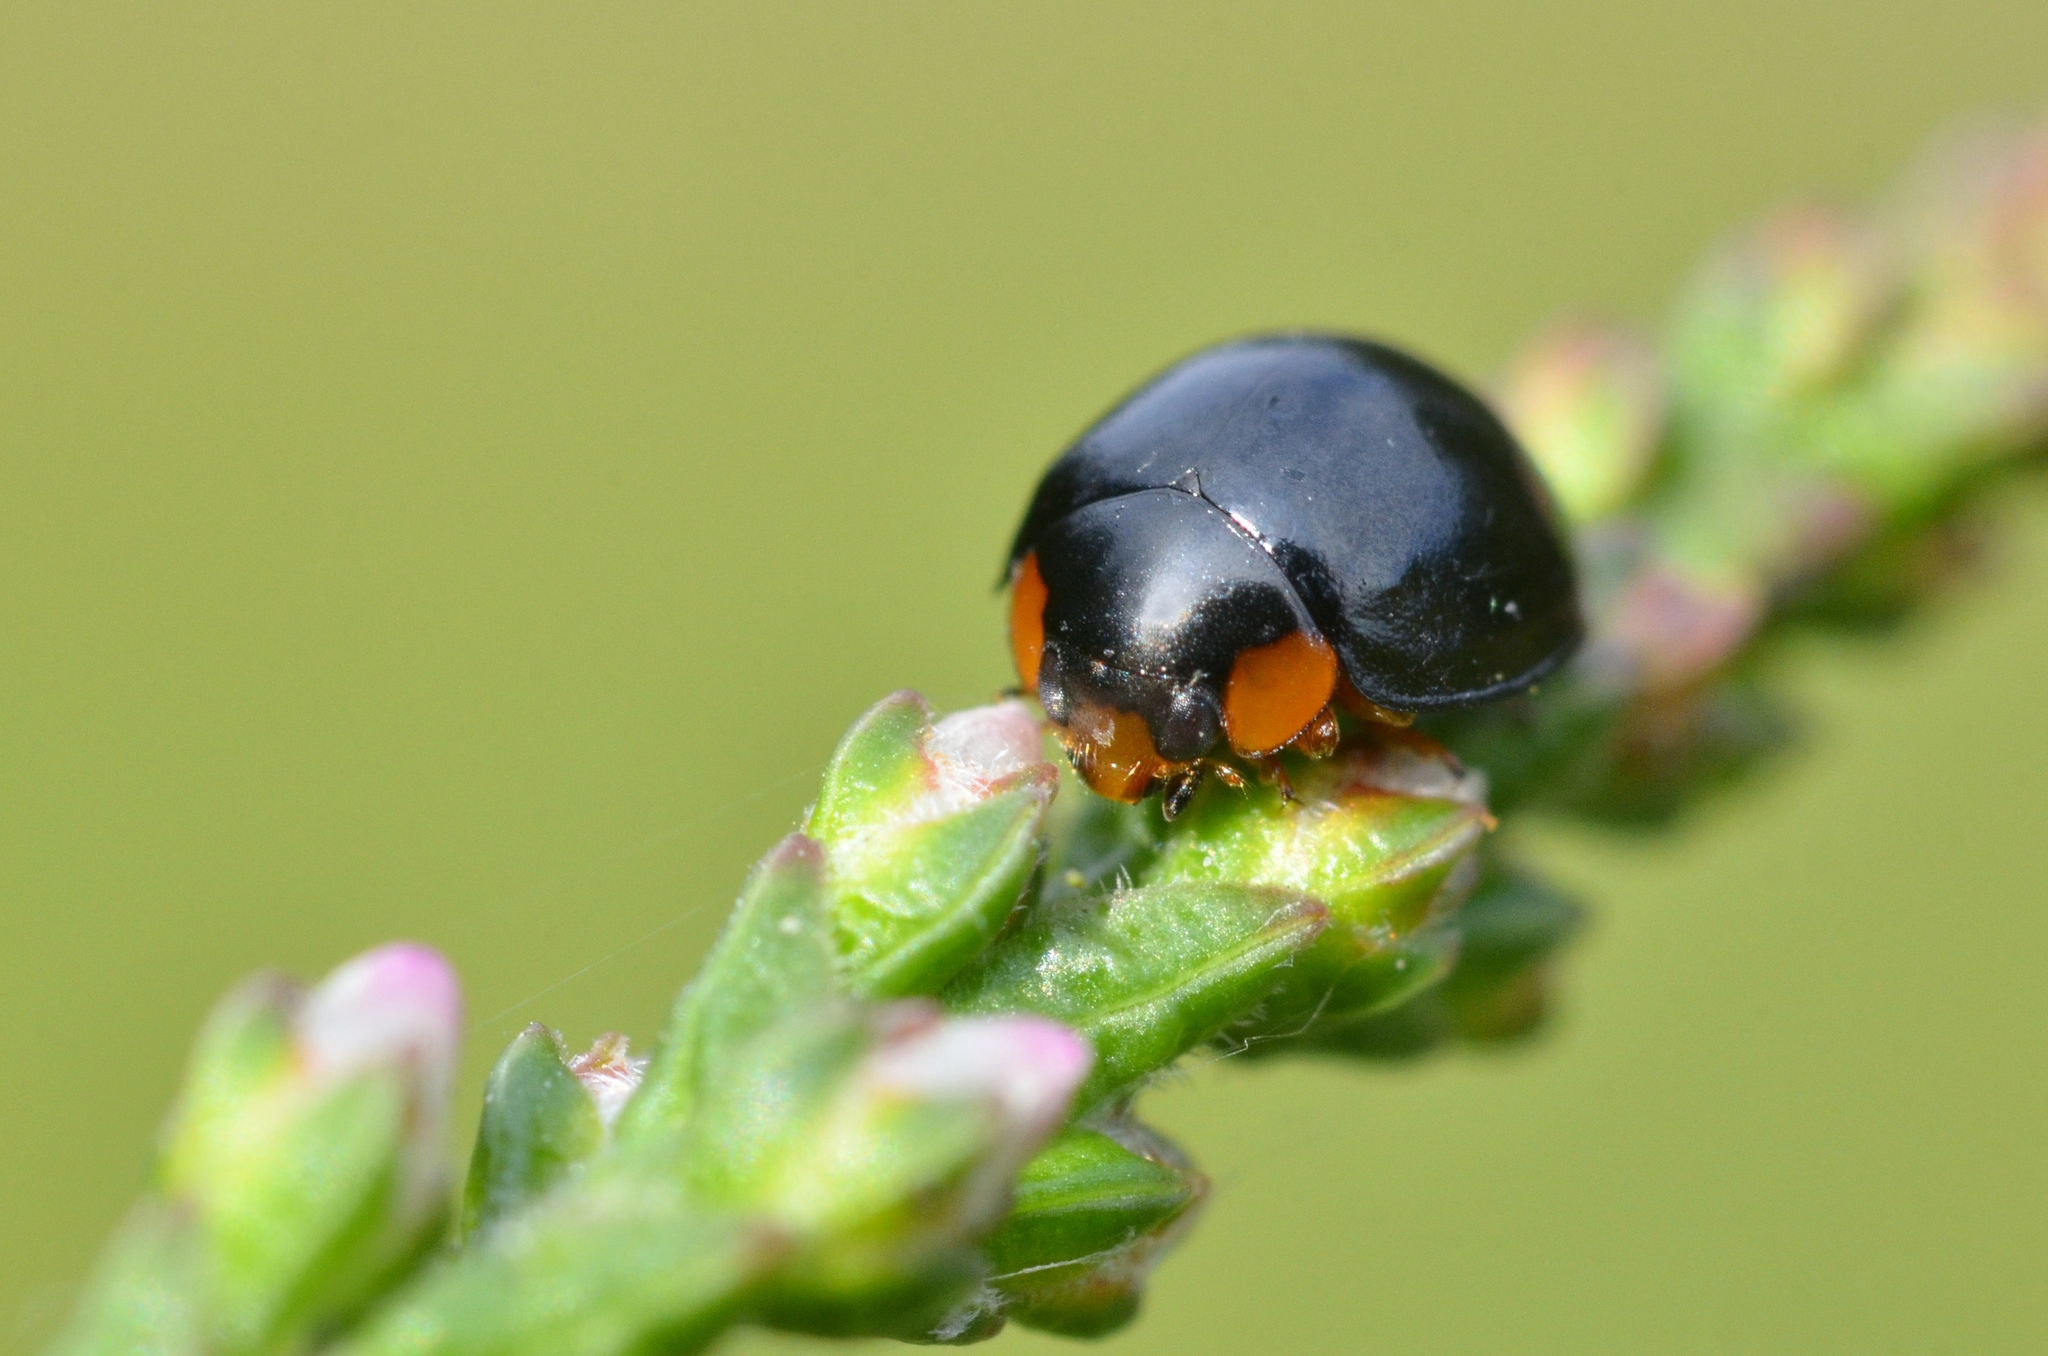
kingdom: Animalia
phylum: Arthropoda
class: Insecta
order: Coleoptera
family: Coccinellidae
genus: Parexochomus
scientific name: Parexochomus nigromaculatus
